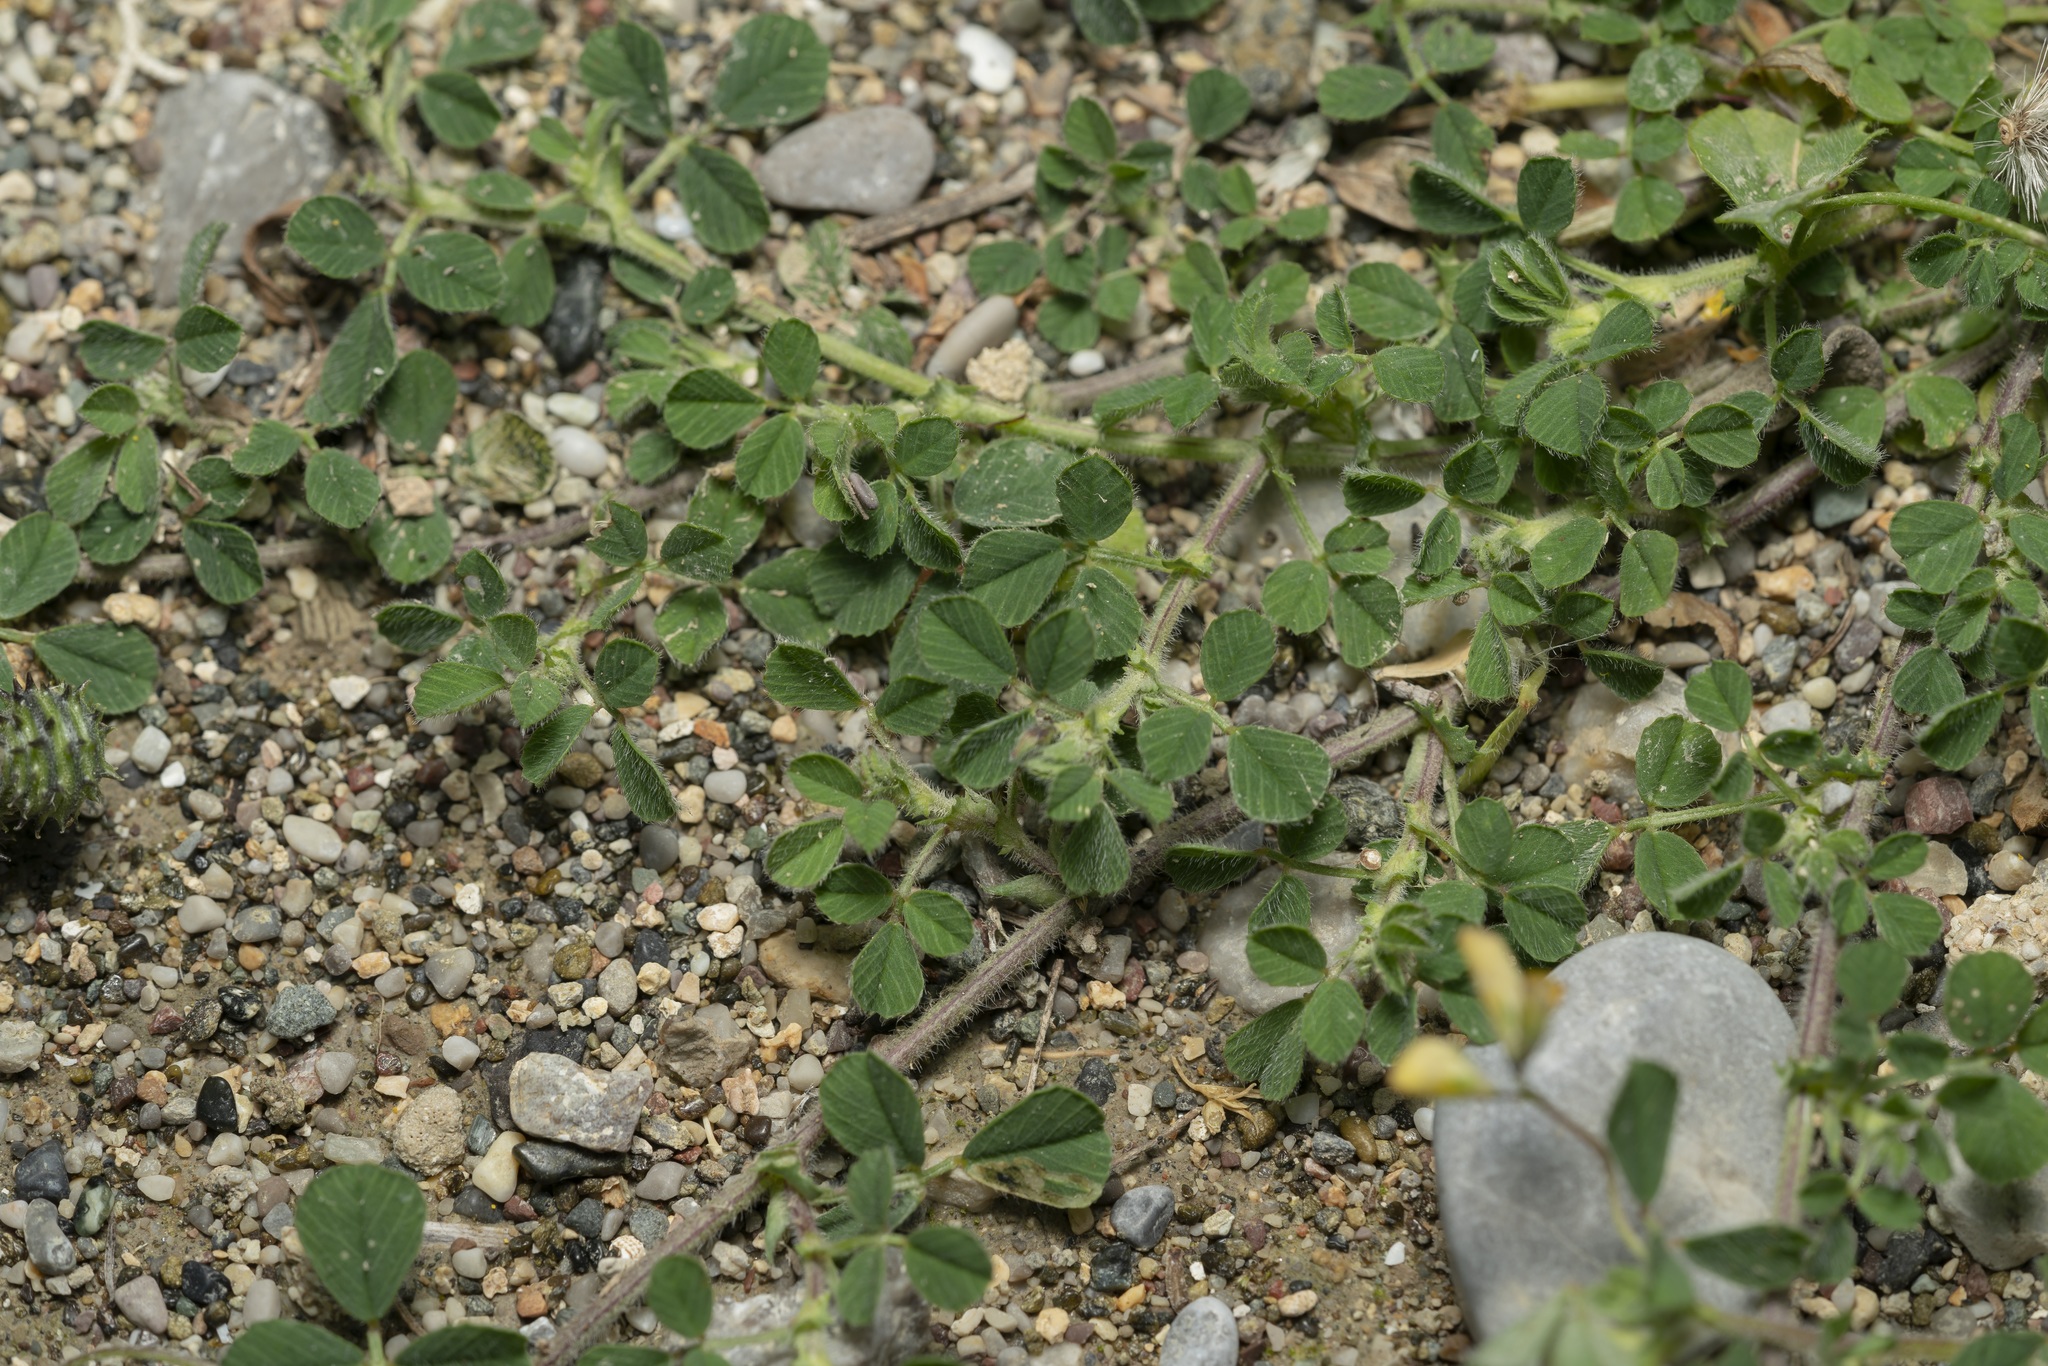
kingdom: Plantae
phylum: Tracheophyta
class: Magnoliopsida
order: Fabales
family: Fabaceae
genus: Medicago
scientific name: Medicago rigidula
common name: Tifton medic
